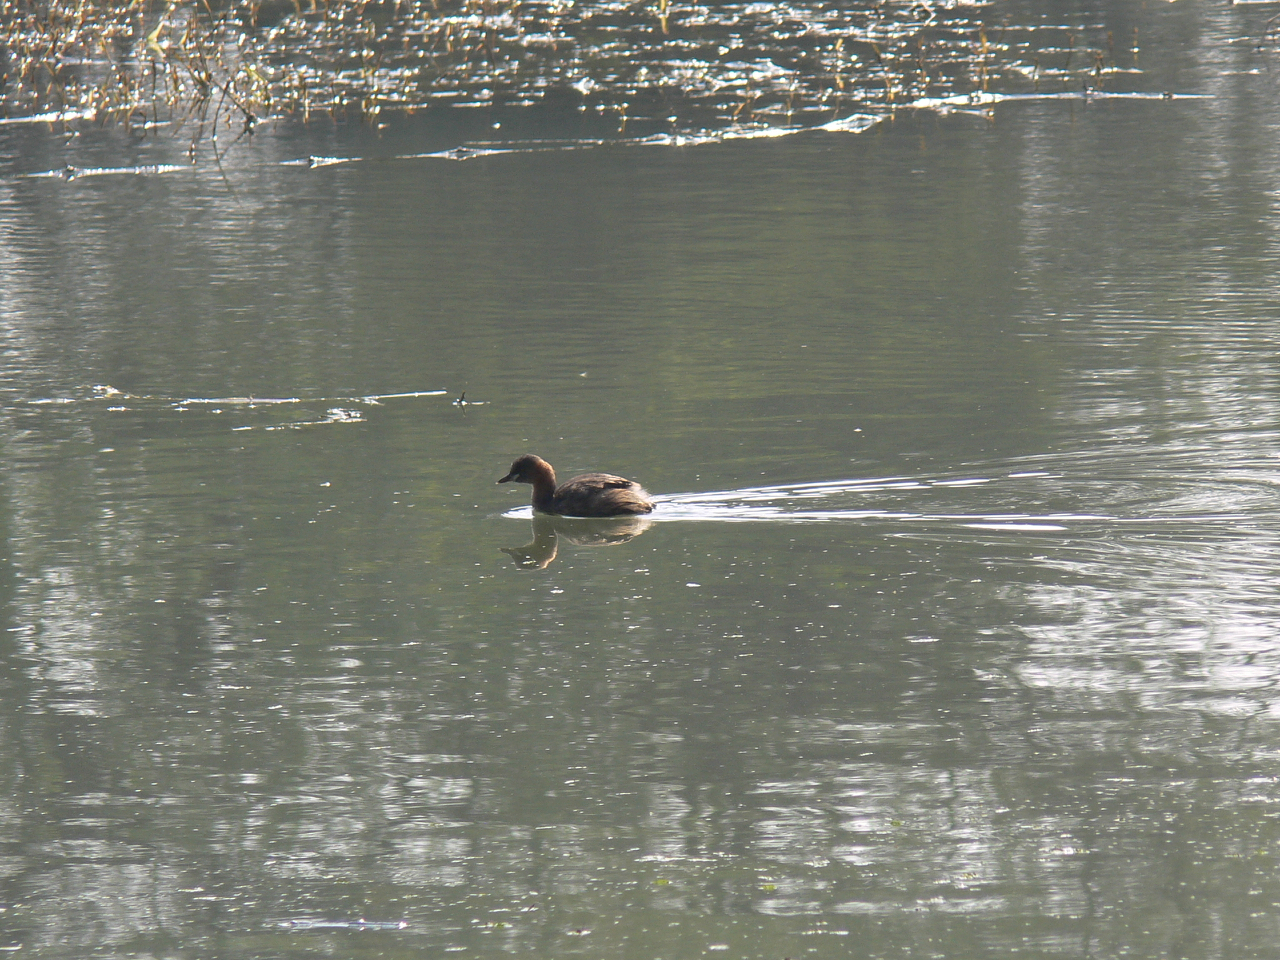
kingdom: Animalia
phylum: Chordata
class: Aves
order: Podicipediformes
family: Podicipedidae
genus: Tachybaptus
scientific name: Tachybaptus ruficollis
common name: Little grebe
